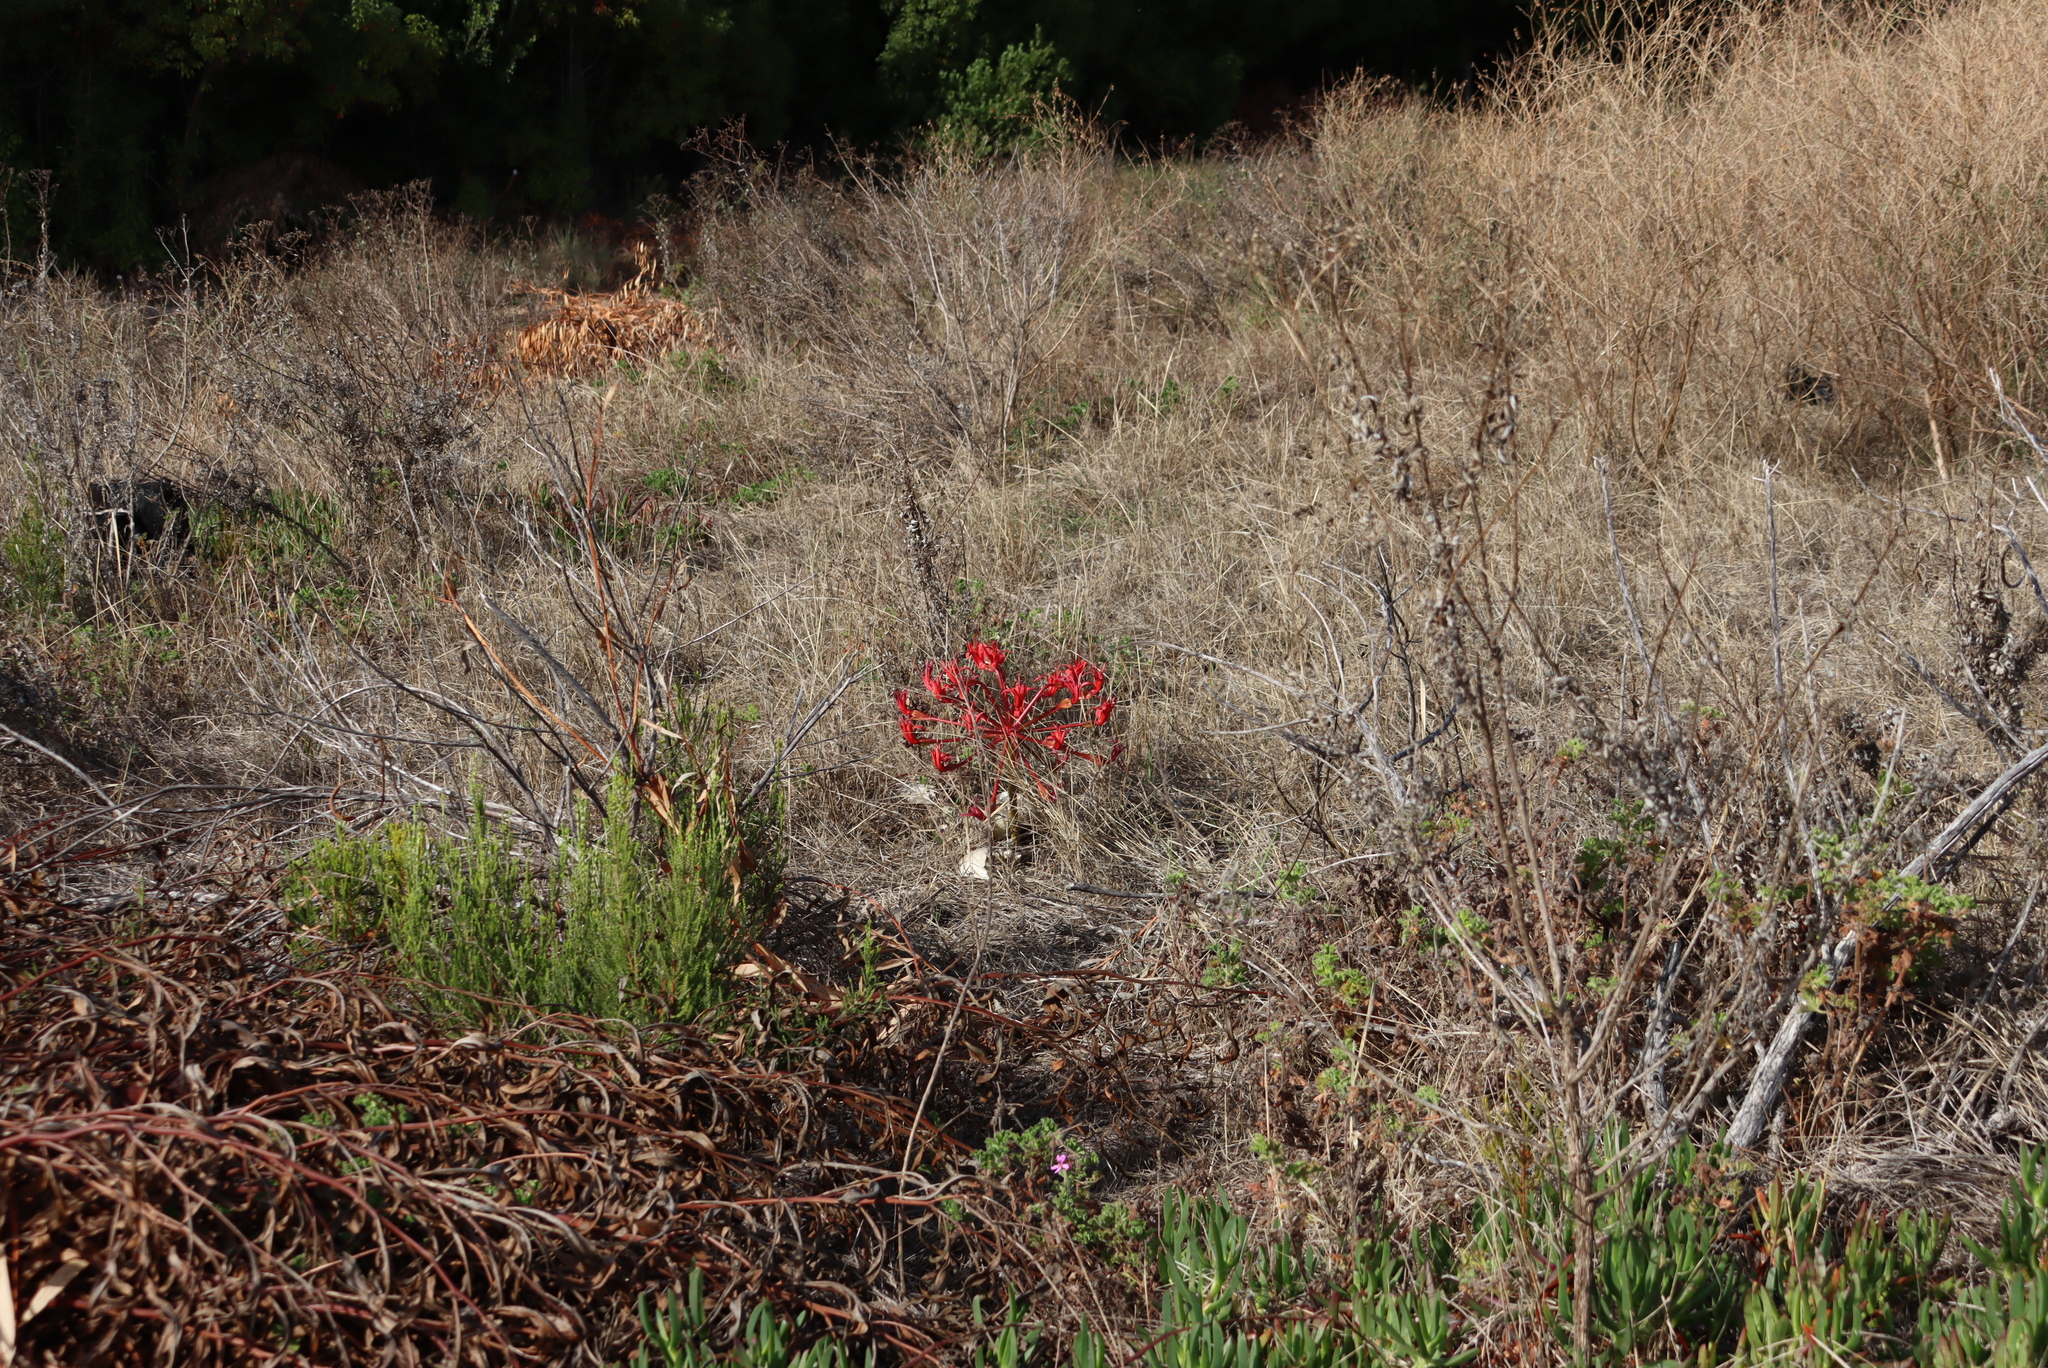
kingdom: Plantae
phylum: Tracheophyta
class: Liliopsida
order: Asparagales
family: Amaryllidaceae
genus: Brunsvigia
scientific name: Brunsvigia orientalis
